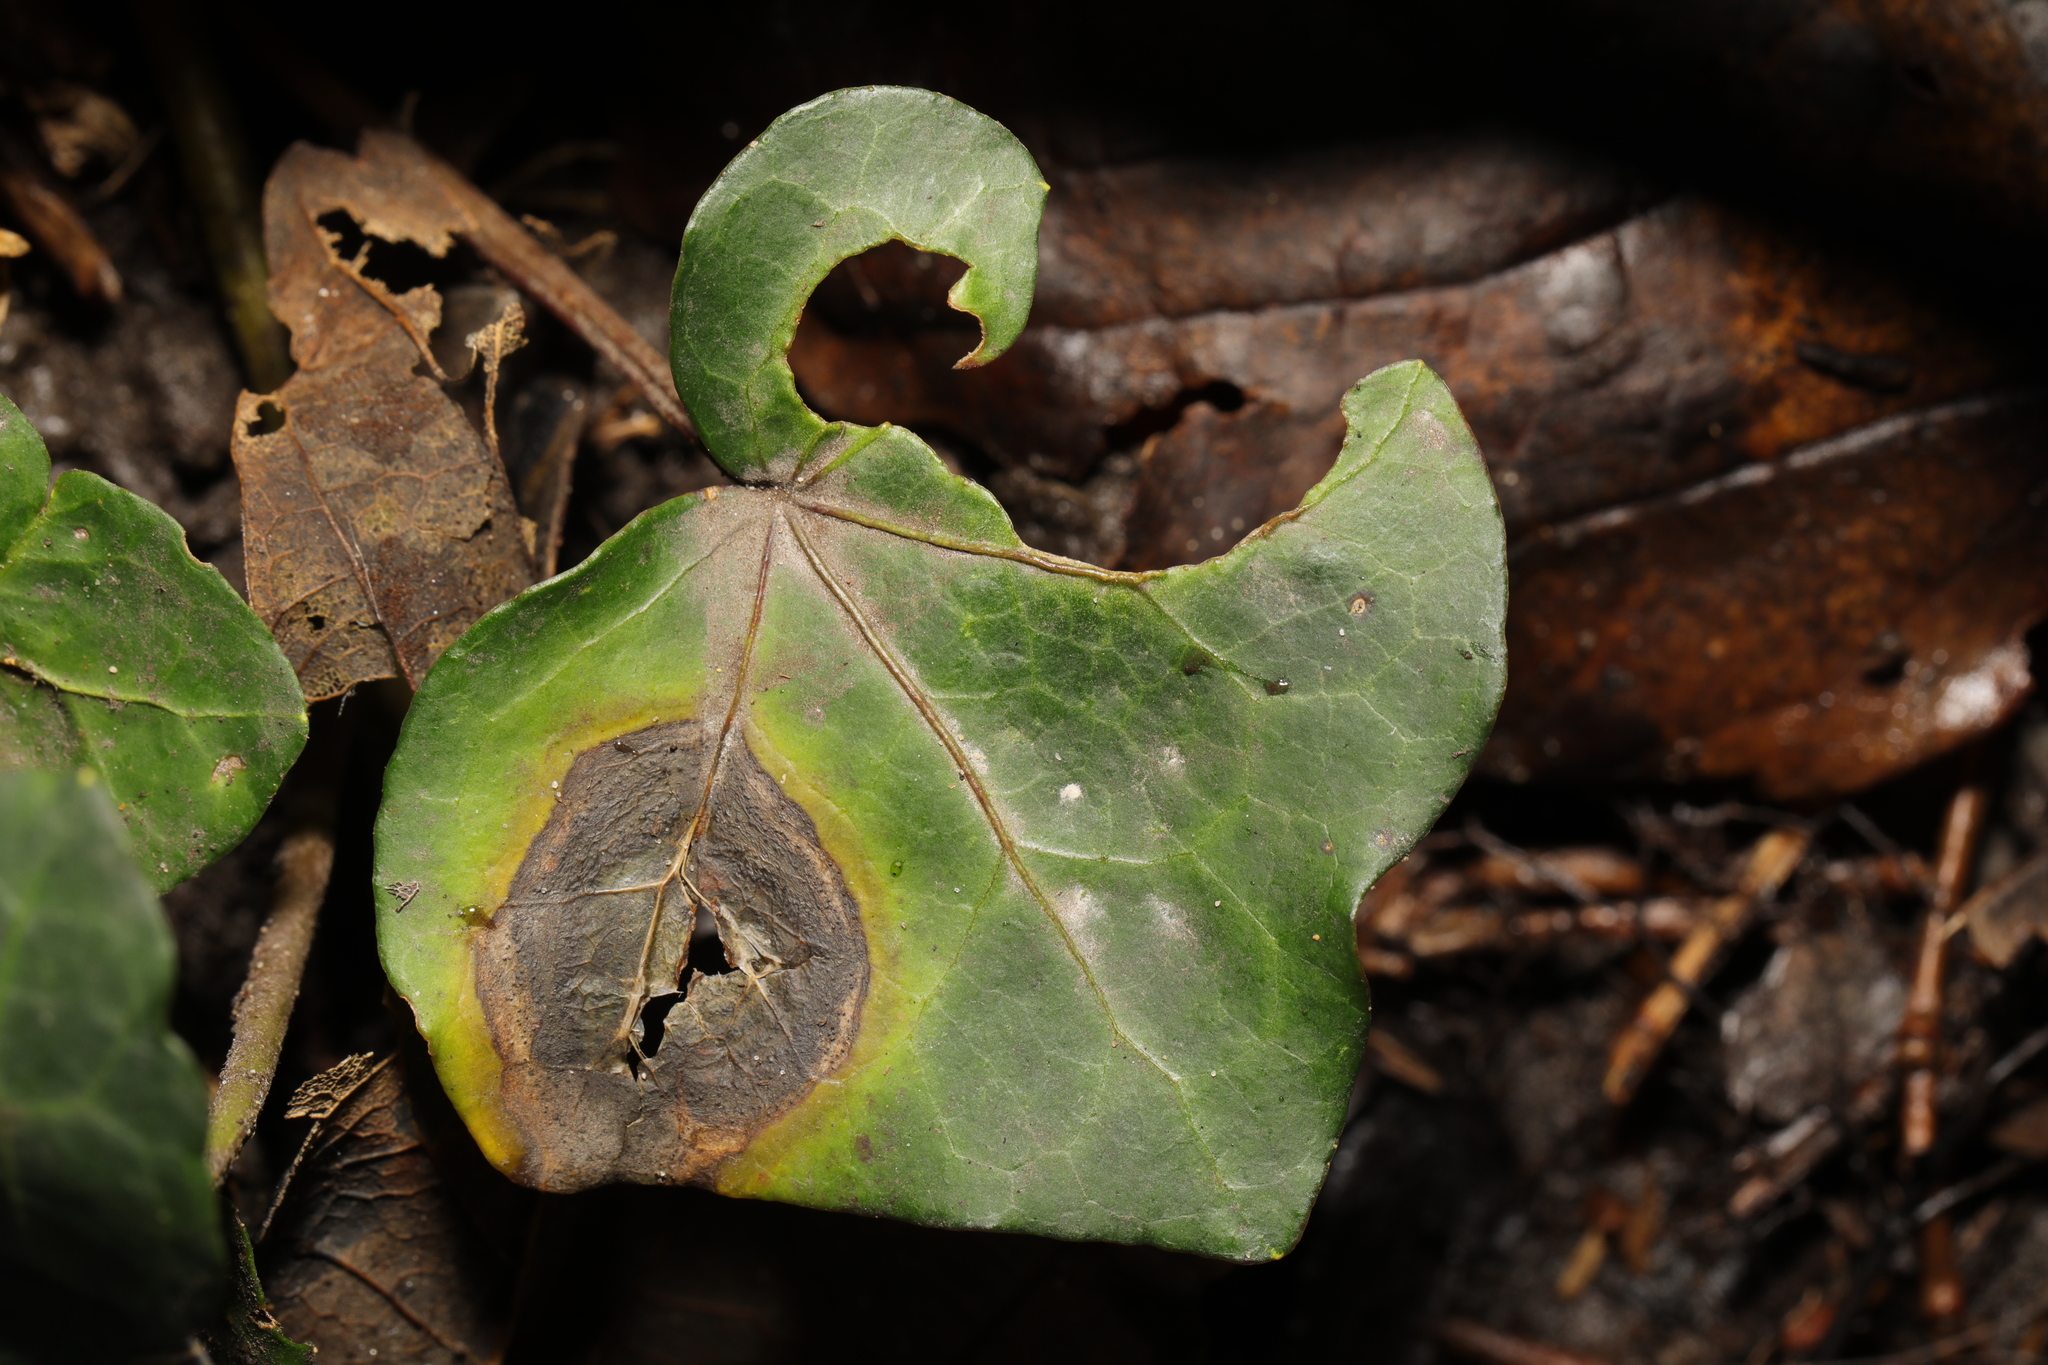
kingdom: Fungi
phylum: Ascomycota
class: Dothideomycetes
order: Pleosporales
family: Didymellaceae
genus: Boeremia
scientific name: Boeremia hedericola
